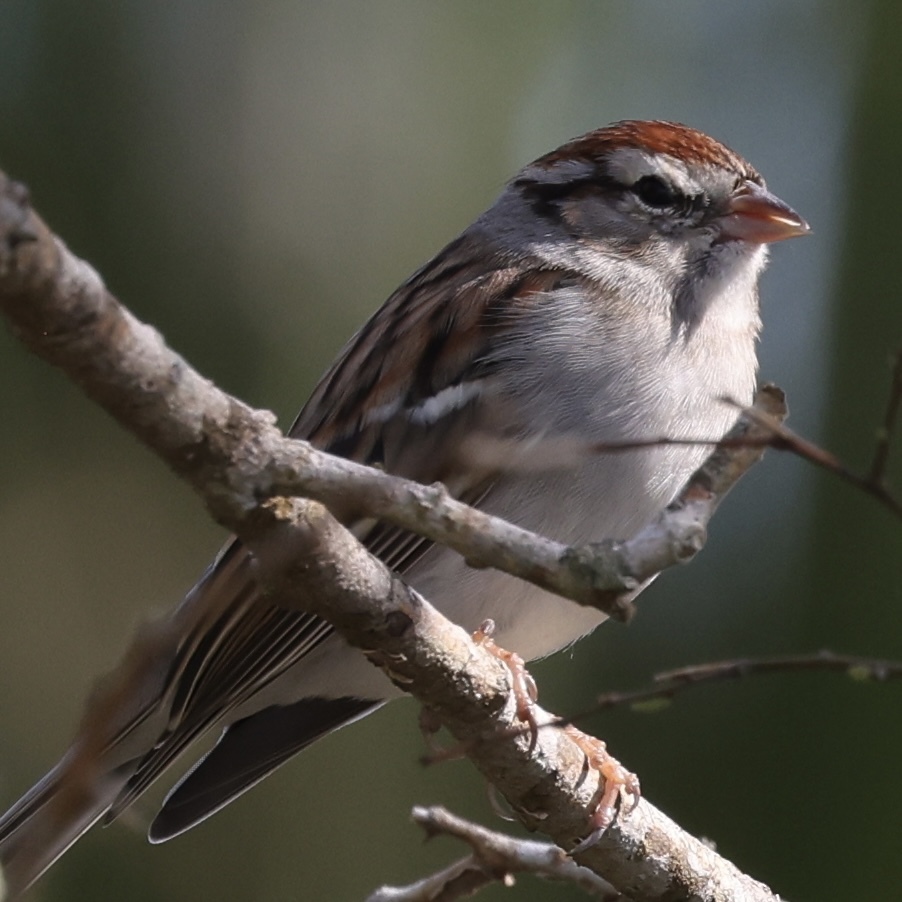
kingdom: Animalia
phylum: Chordata
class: Aves
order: Passeriformes
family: Passerellidae
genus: Spizella
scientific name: Spizella passerina
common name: Chipping sparrow
